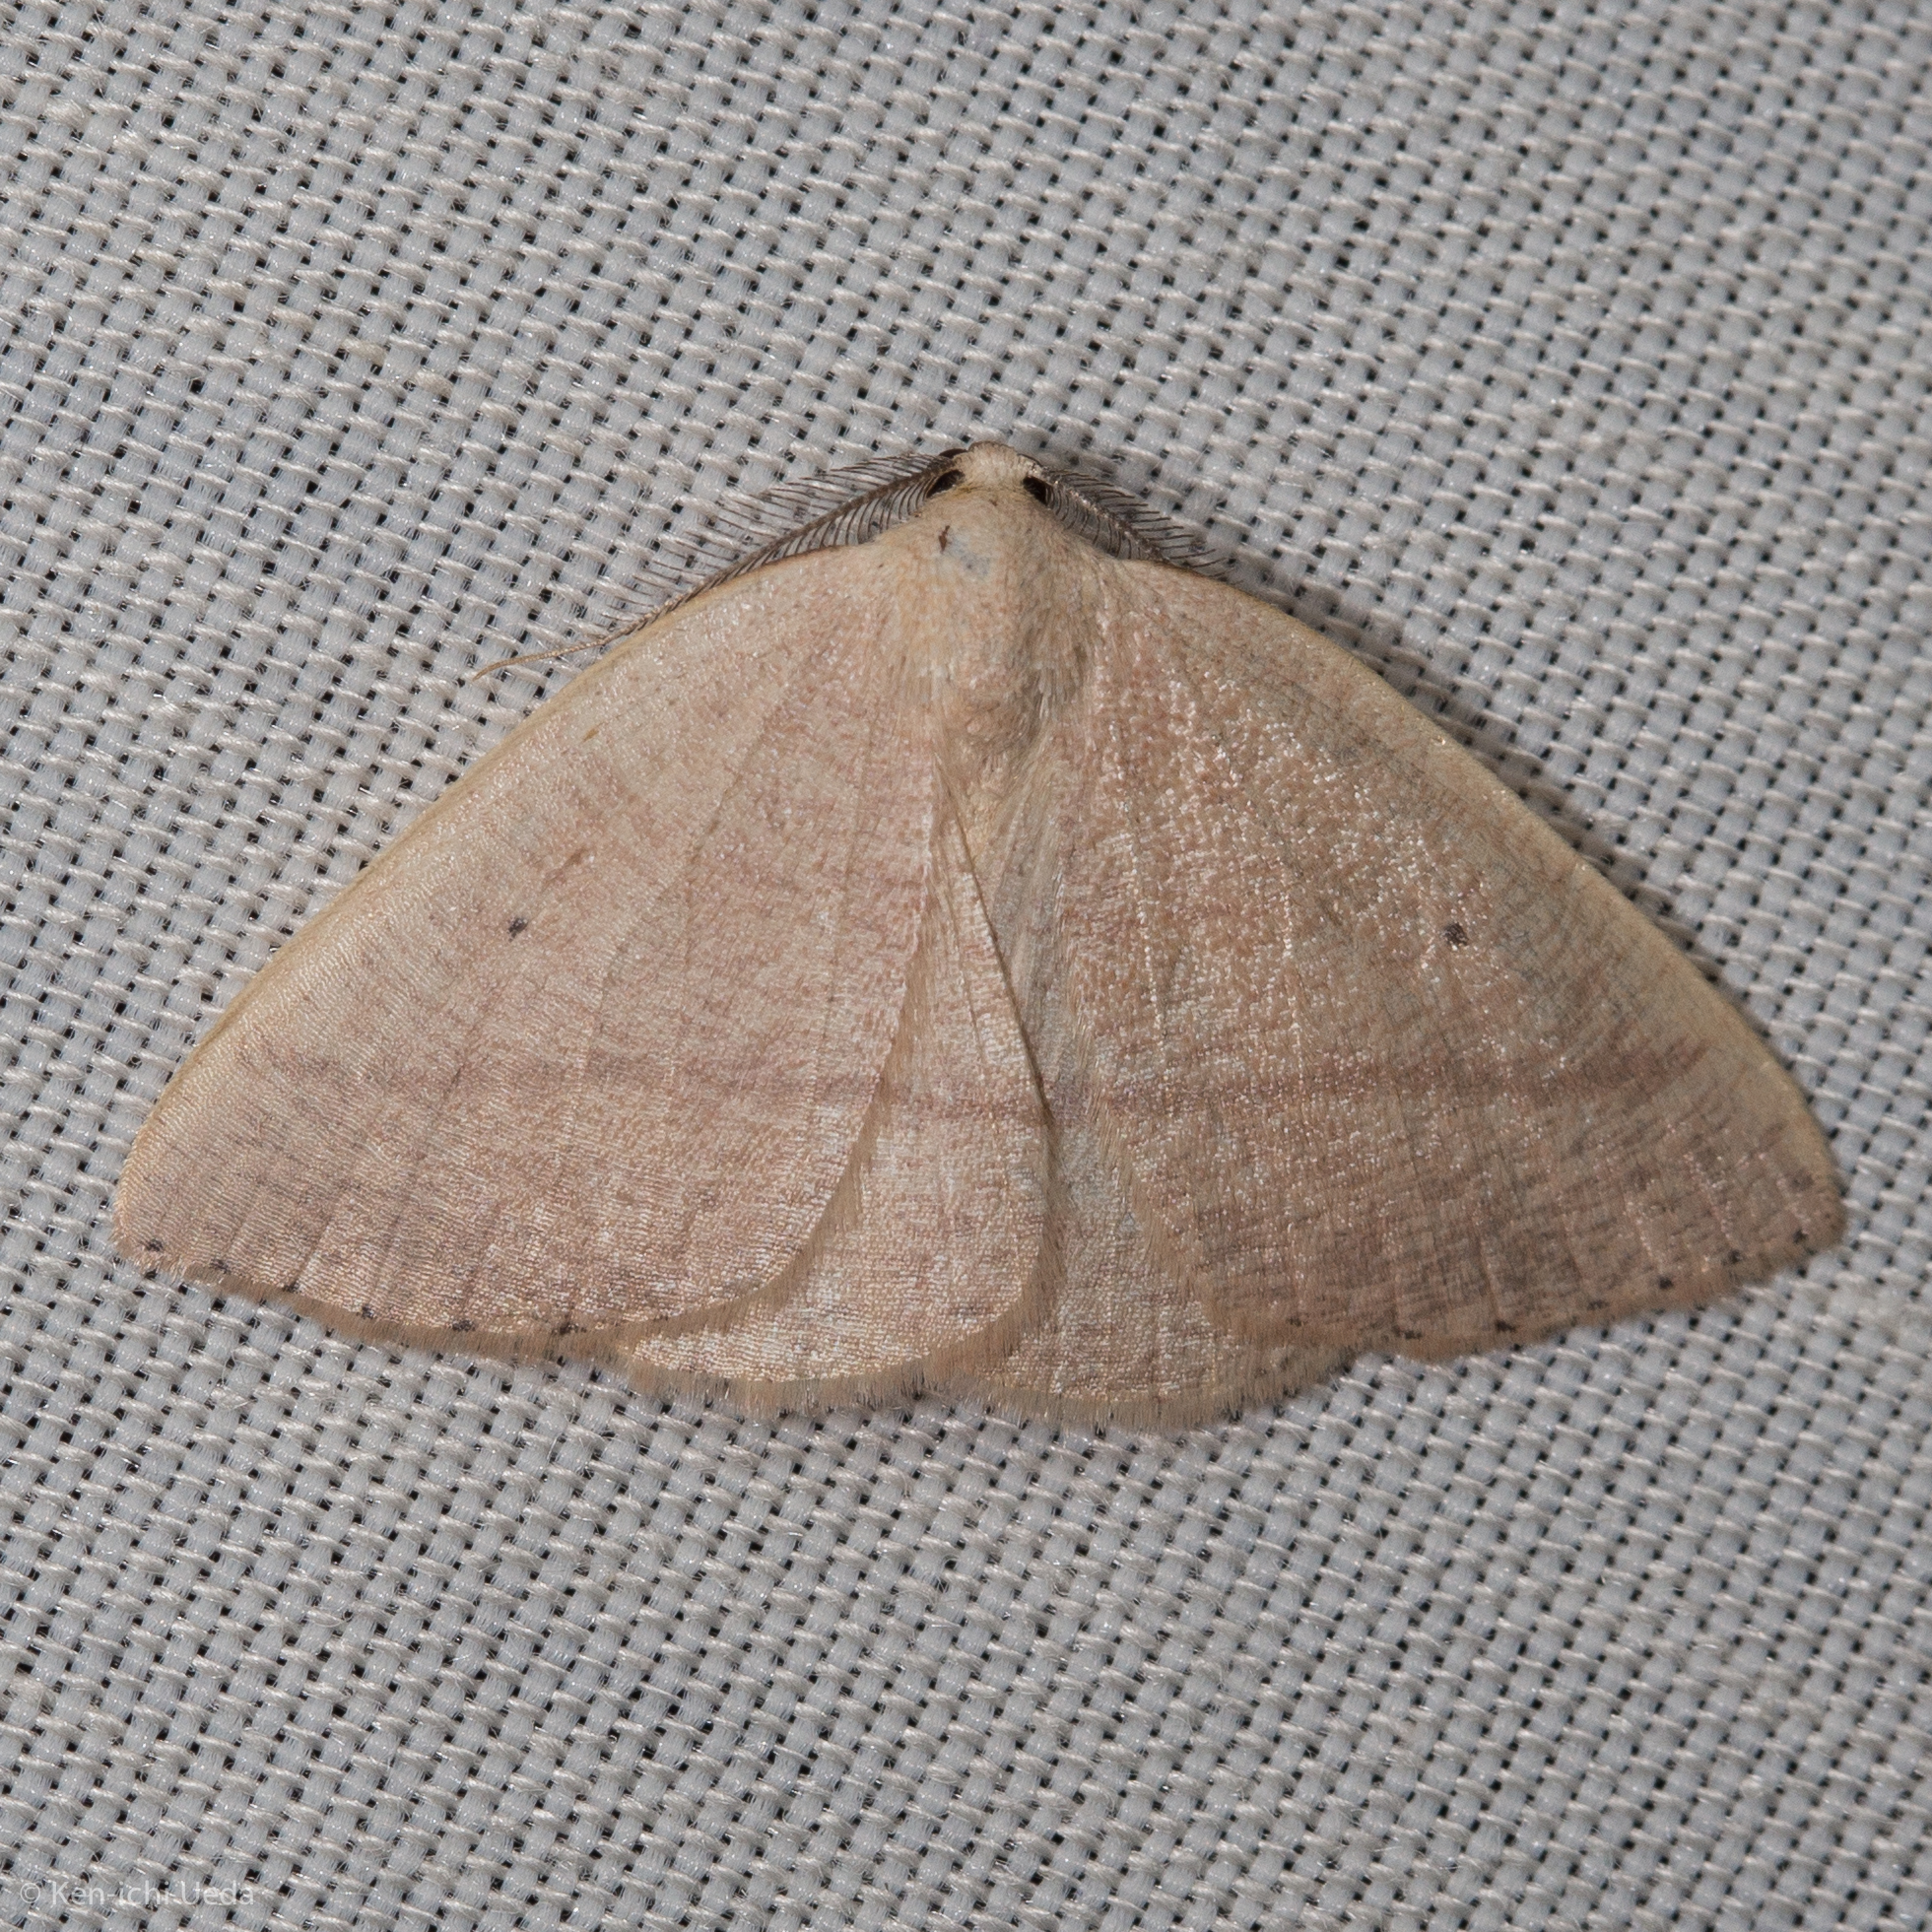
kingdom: Animalia
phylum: Arthropoda
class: Insecta
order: Lepidoptera
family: Geometridae
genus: Eudrepanulatrix
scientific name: Eudrepanulatrix rectifascia
